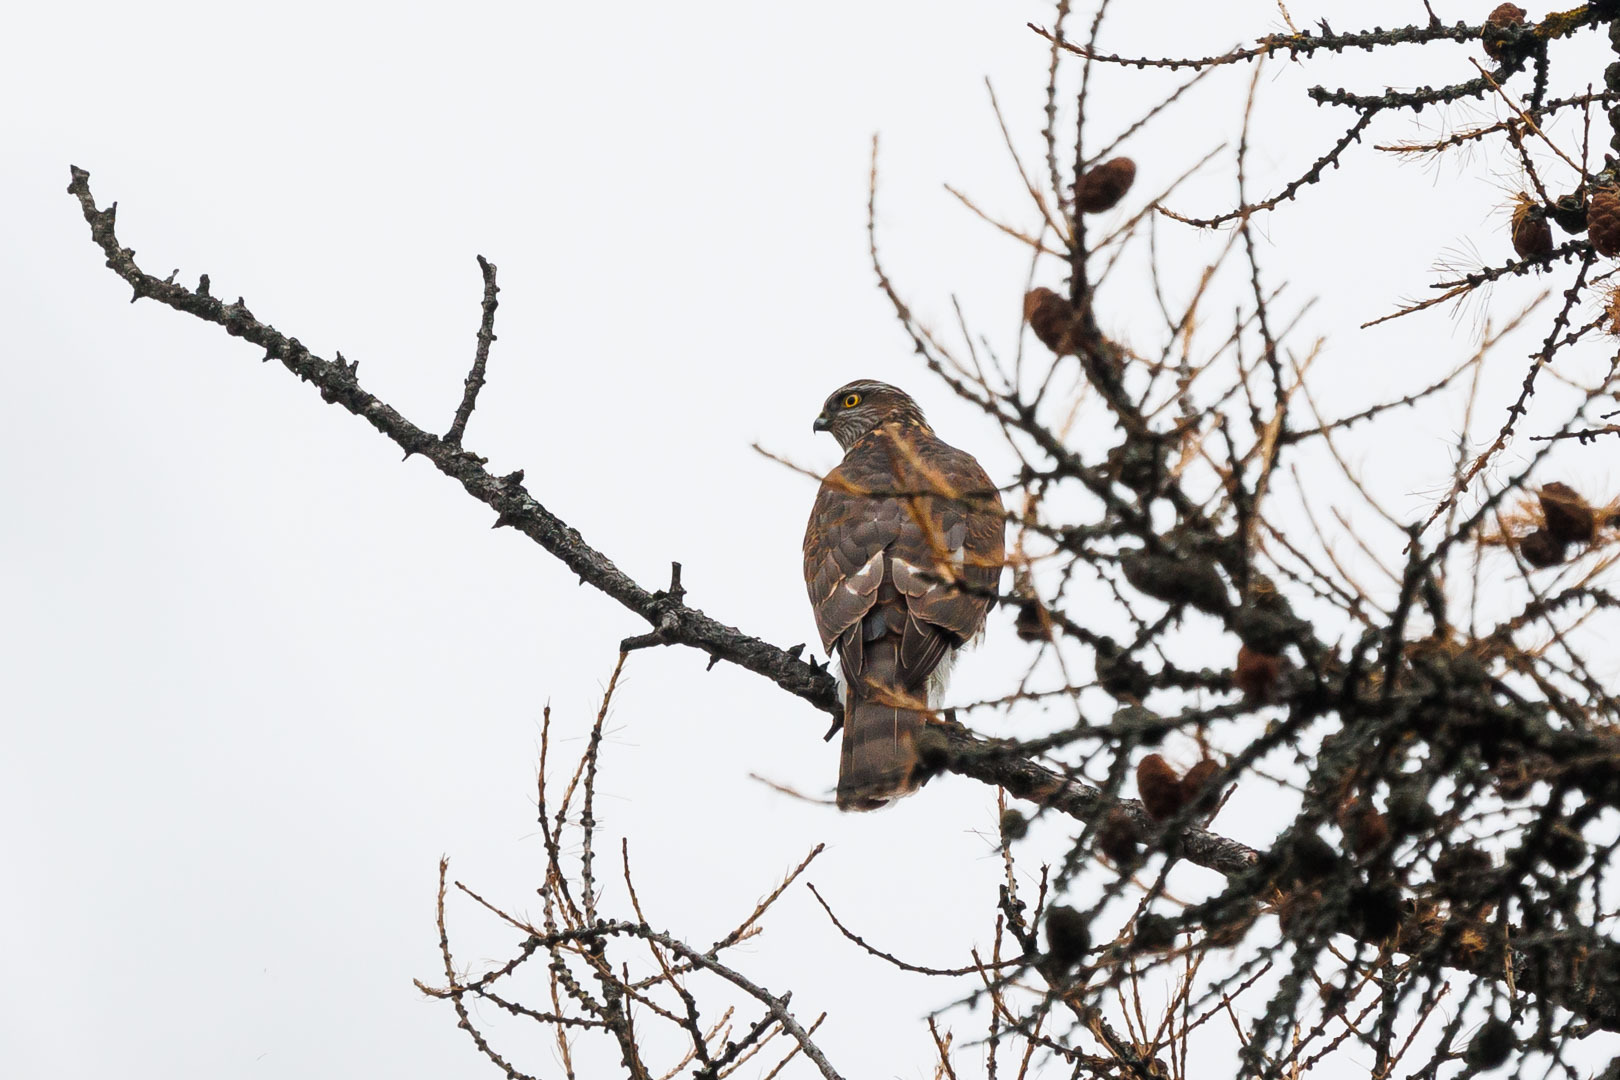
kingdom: Animalia
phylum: Chordata
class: Aves
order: Accipitriformes
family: Accipitridae
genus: Accipiter
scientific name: Accipiter nisus
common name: Eurasian sparrowhawk
